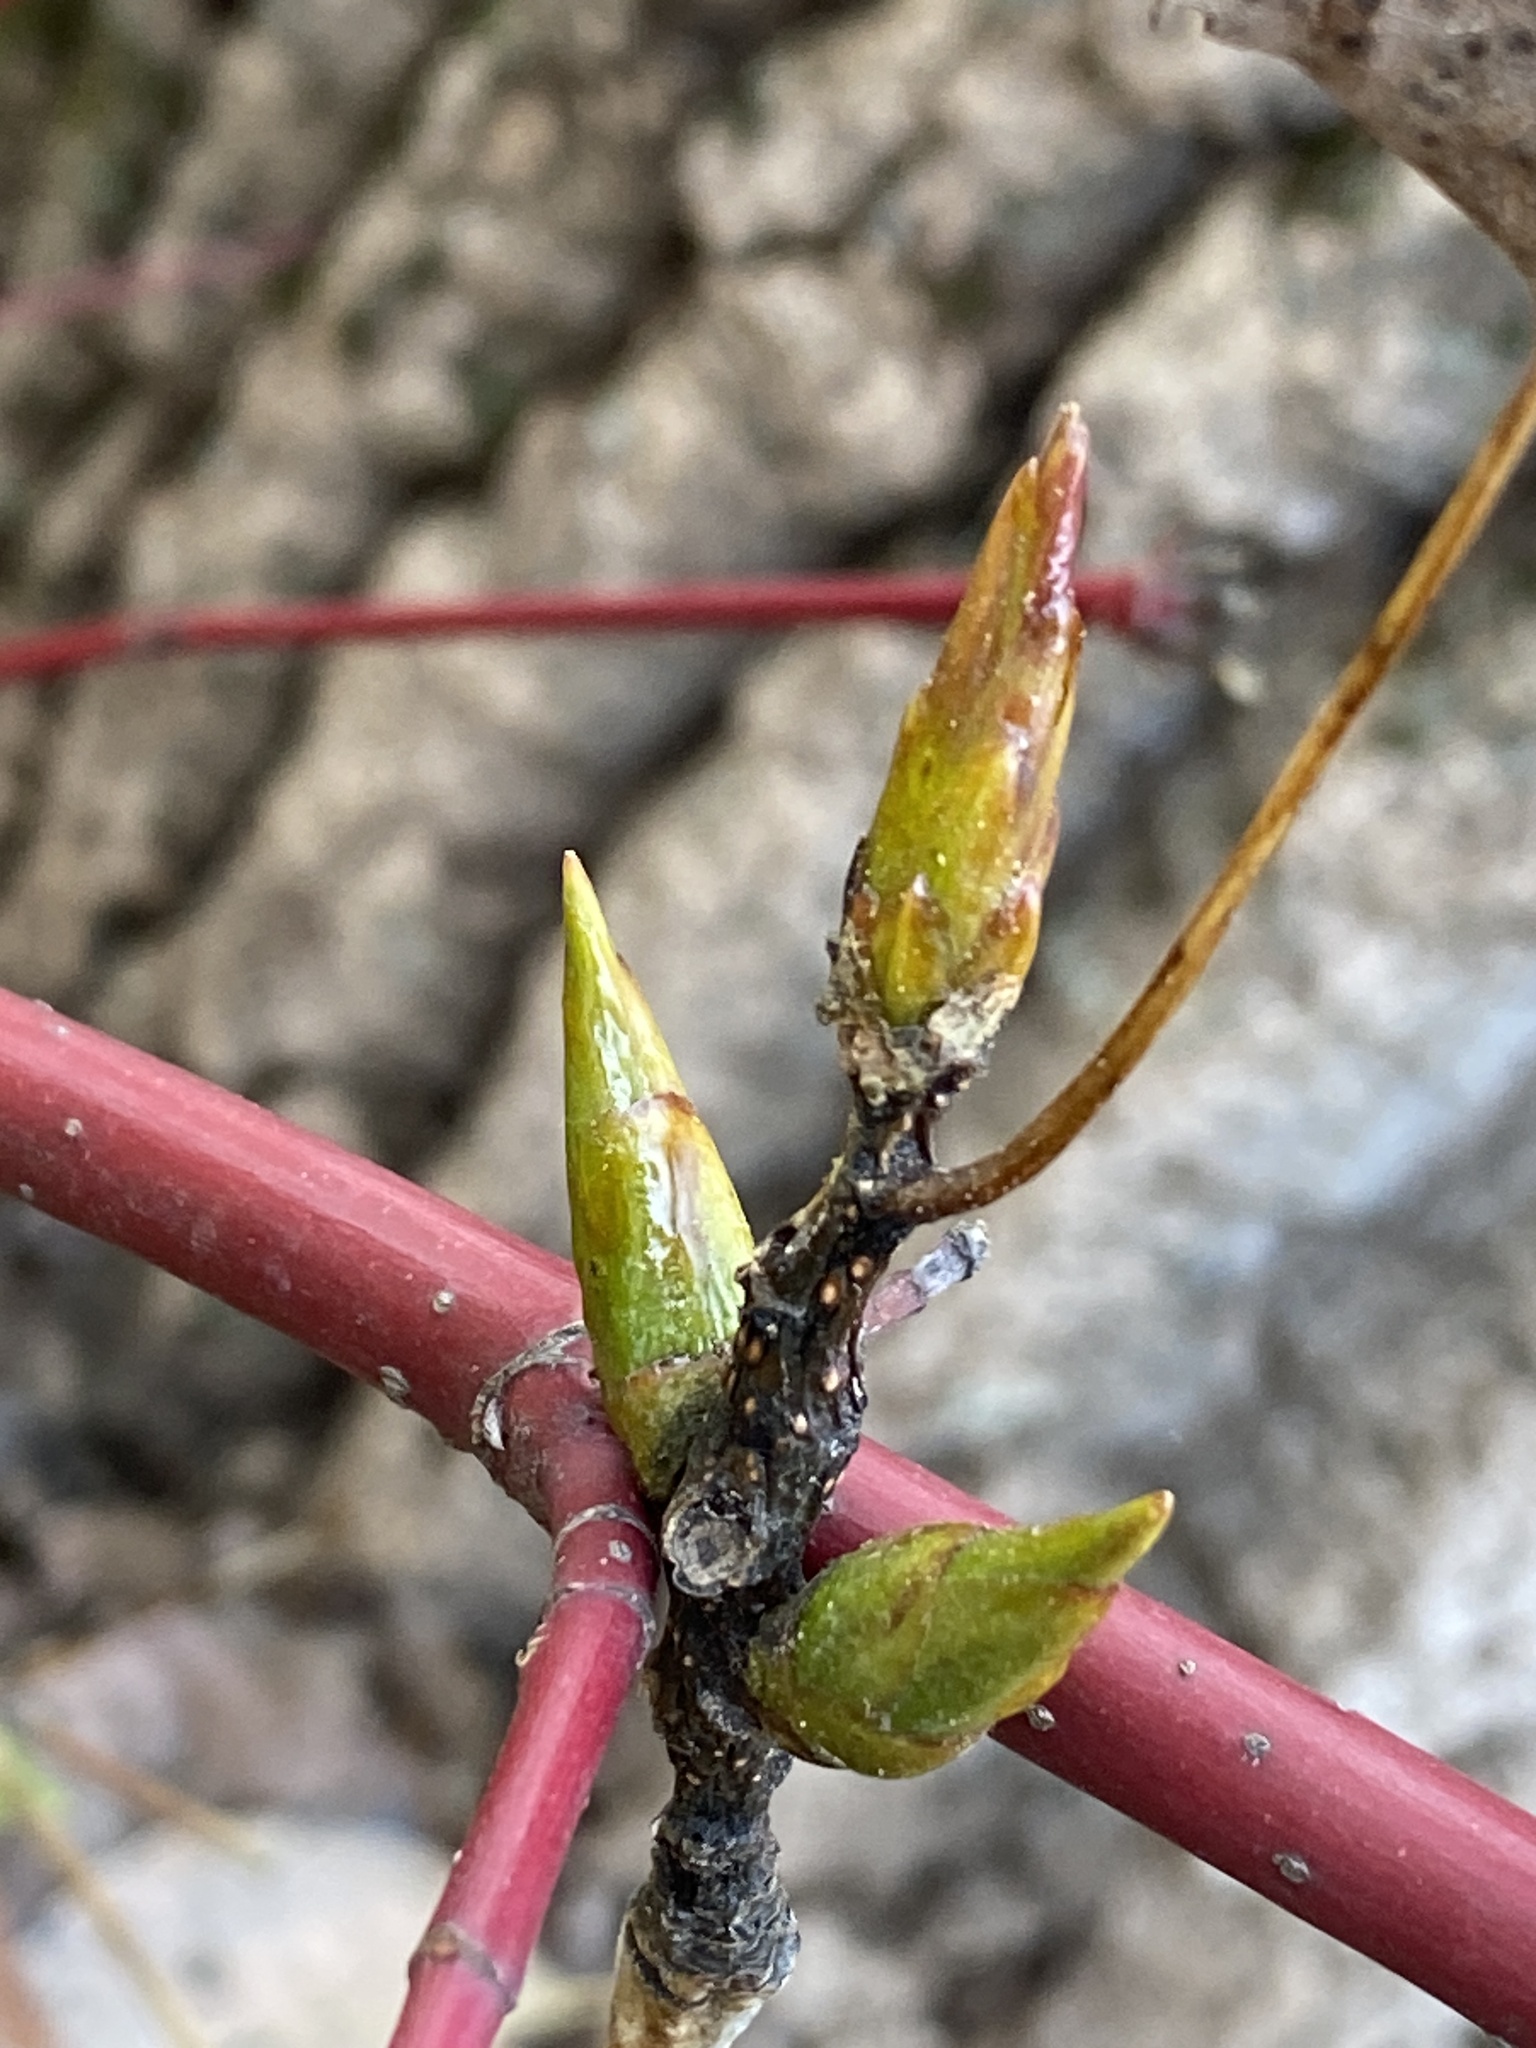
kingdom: Plantae
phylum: Tracheophyta
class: Magnoliopsida
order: Malpighiales
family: Salicaceae
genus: Populus
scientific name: Populus deltoides
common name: Eastern cottonwood
